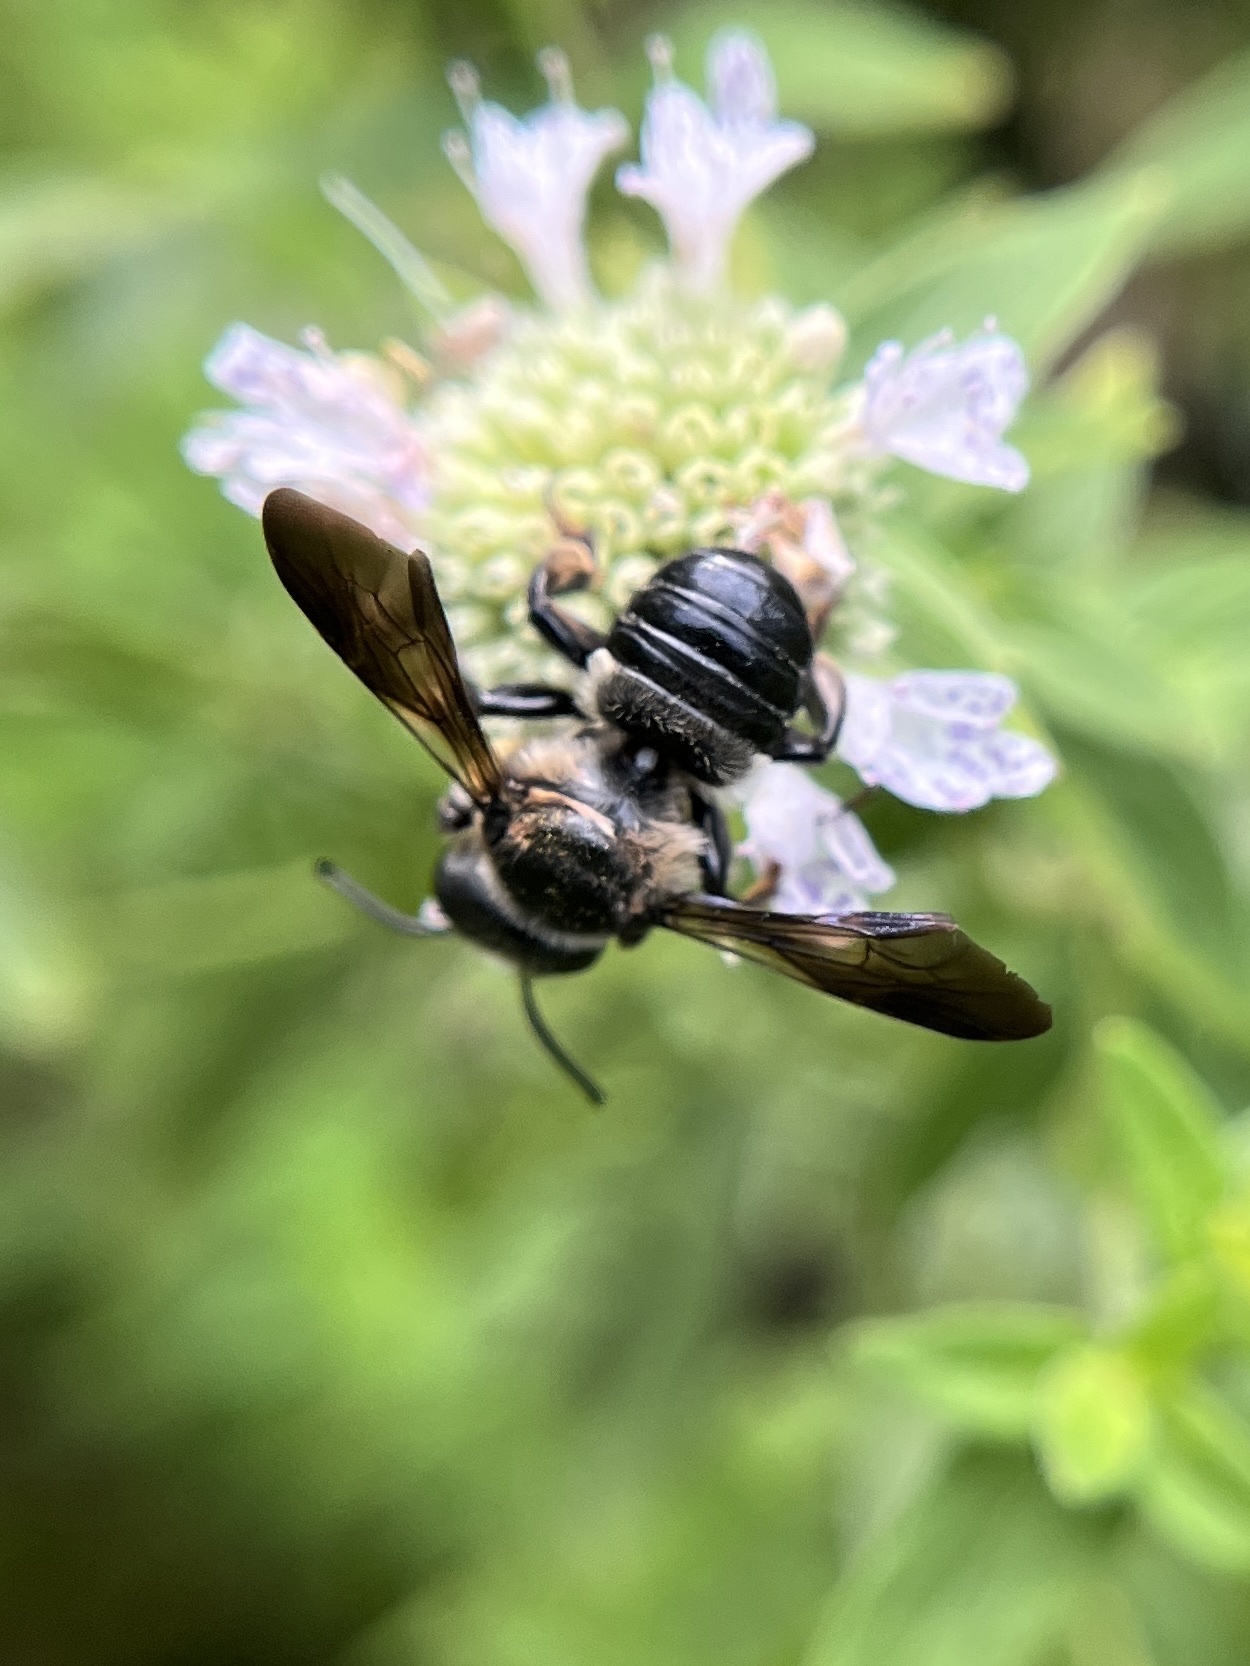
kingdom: Animalia
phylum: Arthropoda
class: Insecta
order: Hymenoptera
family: Megachilidae
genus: Megachile
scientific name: Megachile xylocopoides
